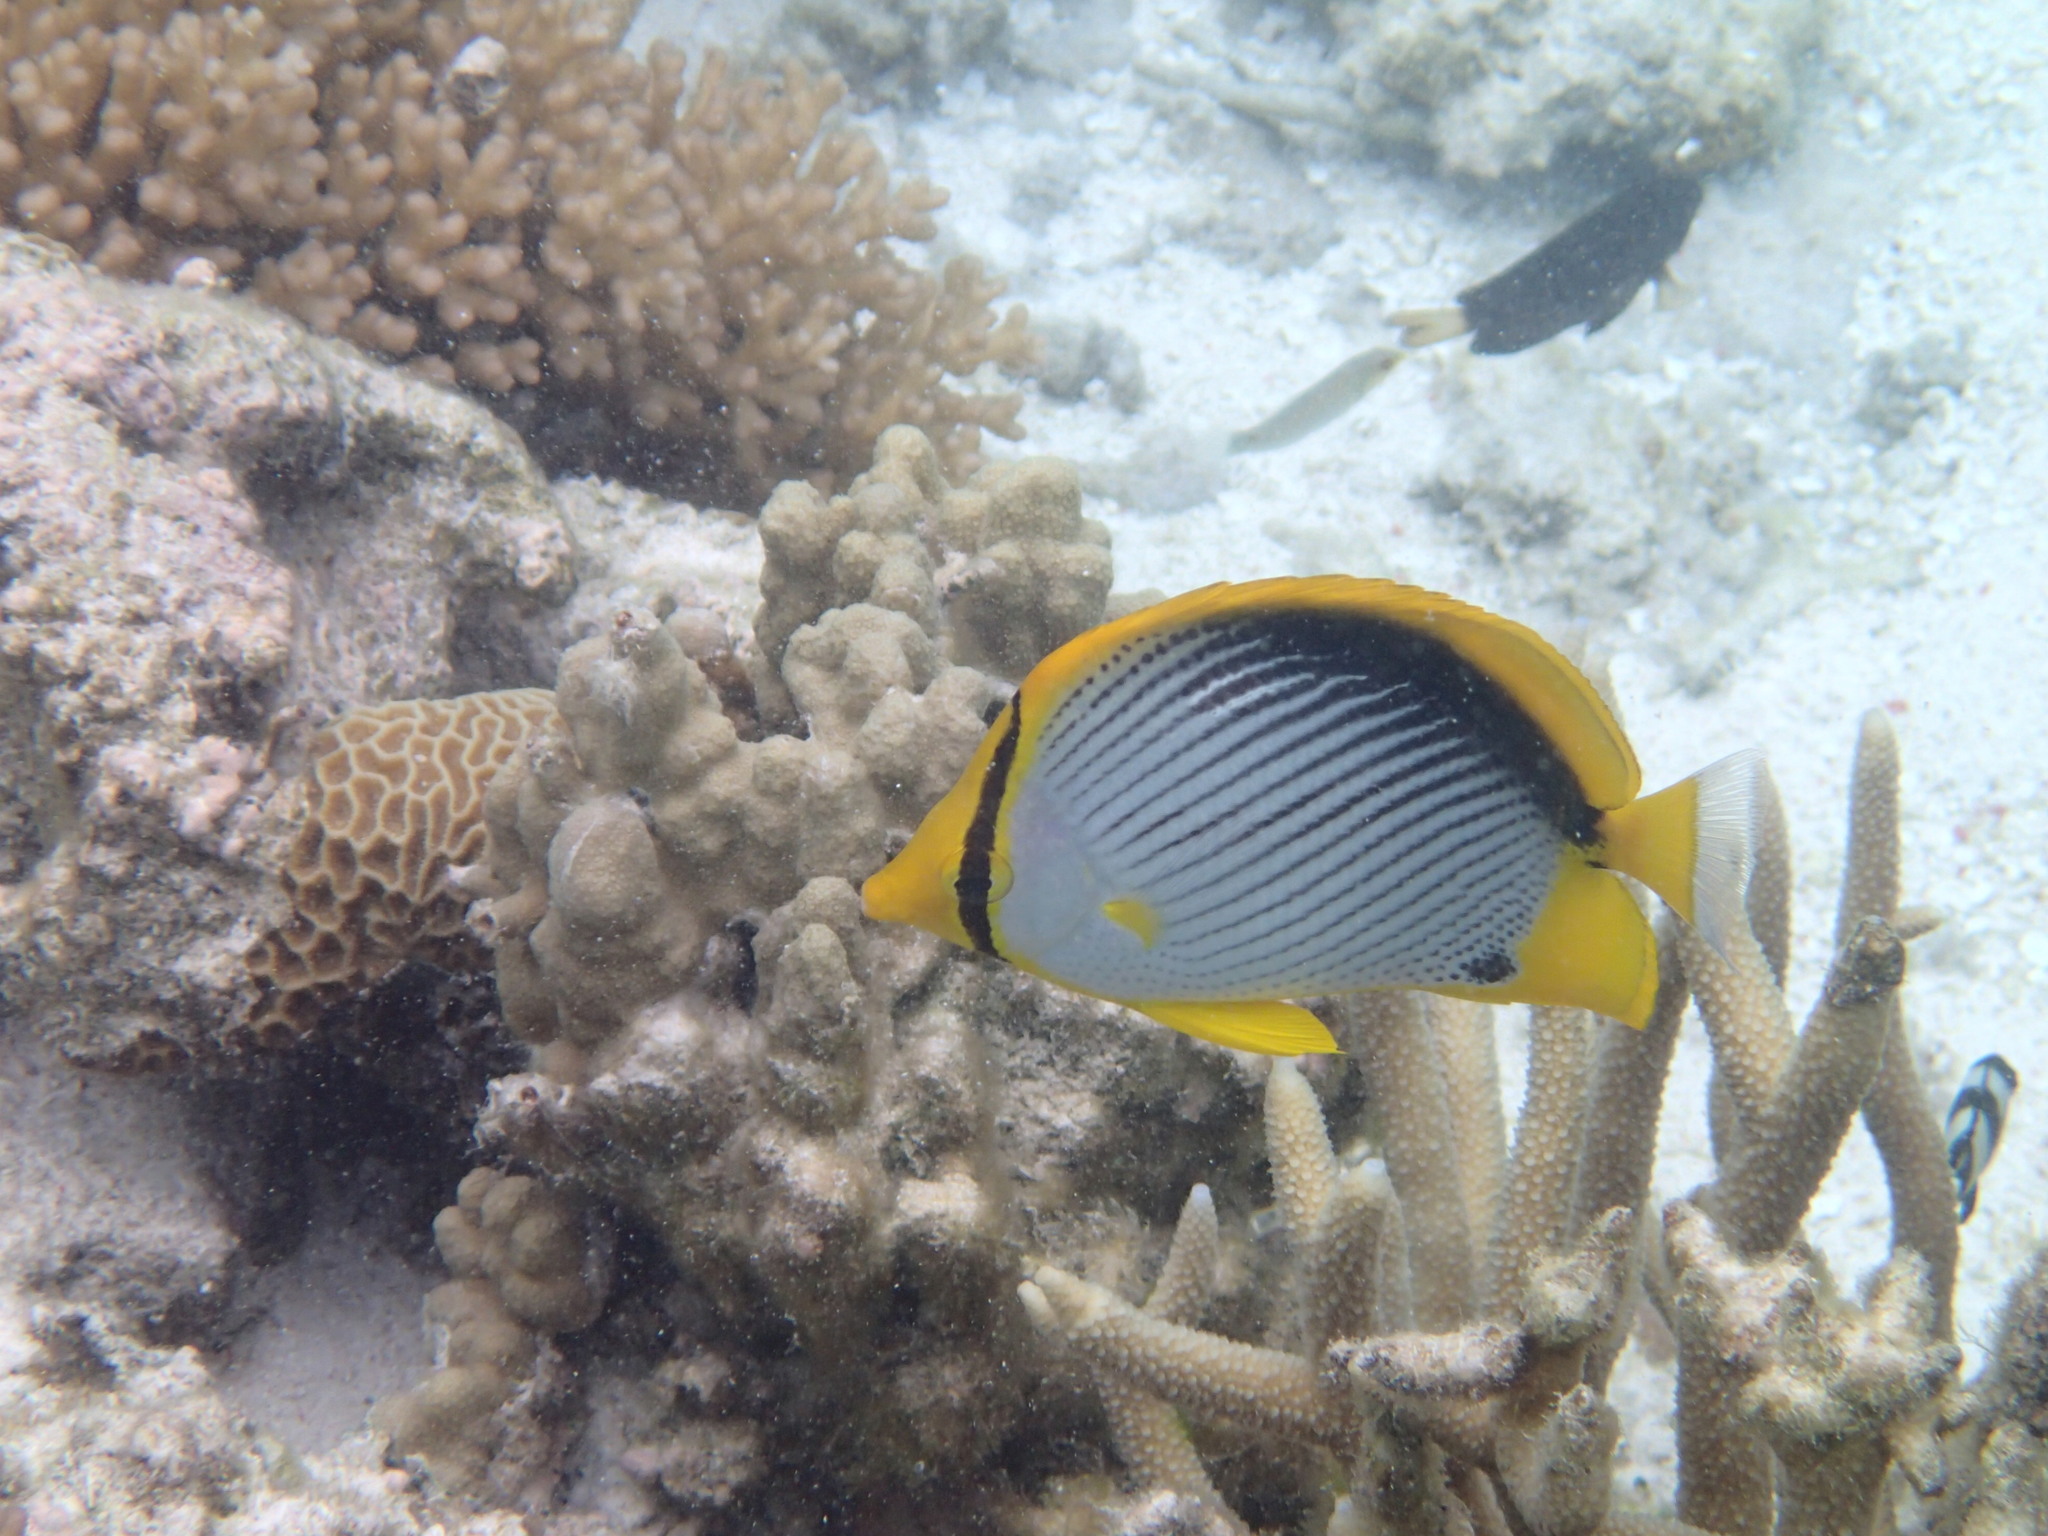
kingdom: Animalia
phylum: Chordata
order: Perciformes
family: Chaetodontidae
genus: Chaetodon
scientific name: Chaetodon melannotus
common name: Blackback butterflyfish
